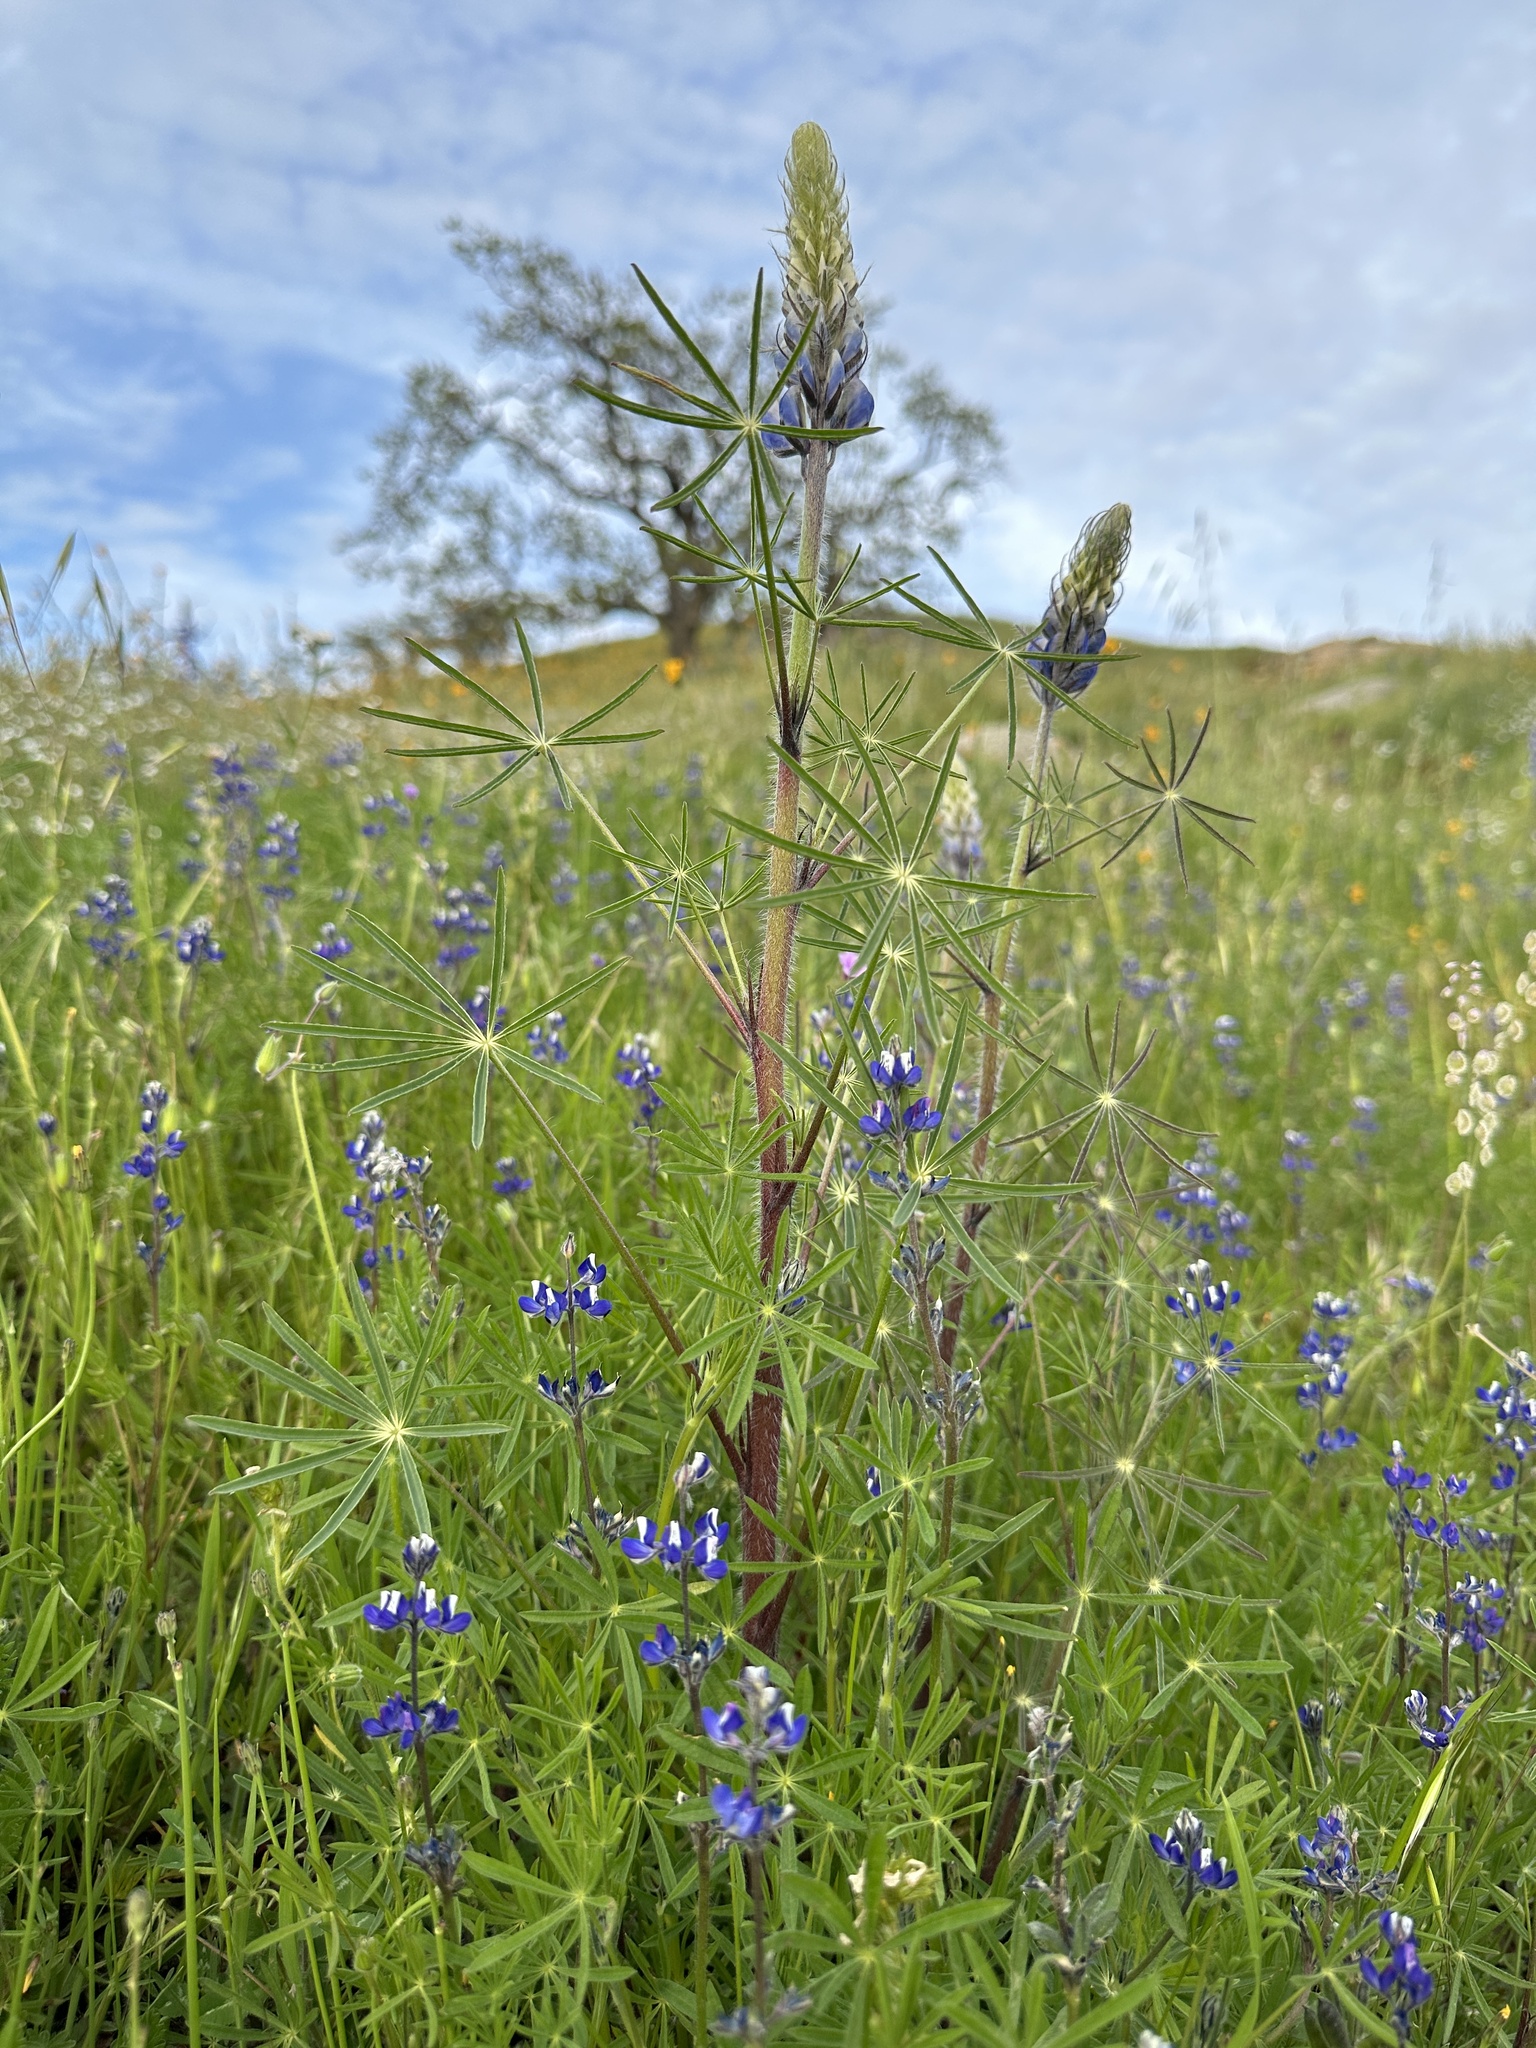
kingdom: Plantae
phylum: Tracheophyta
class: Magnoliopsida
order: Fabales
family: Fabaceae
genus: Lupinus
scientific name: Lupinus benthamii
